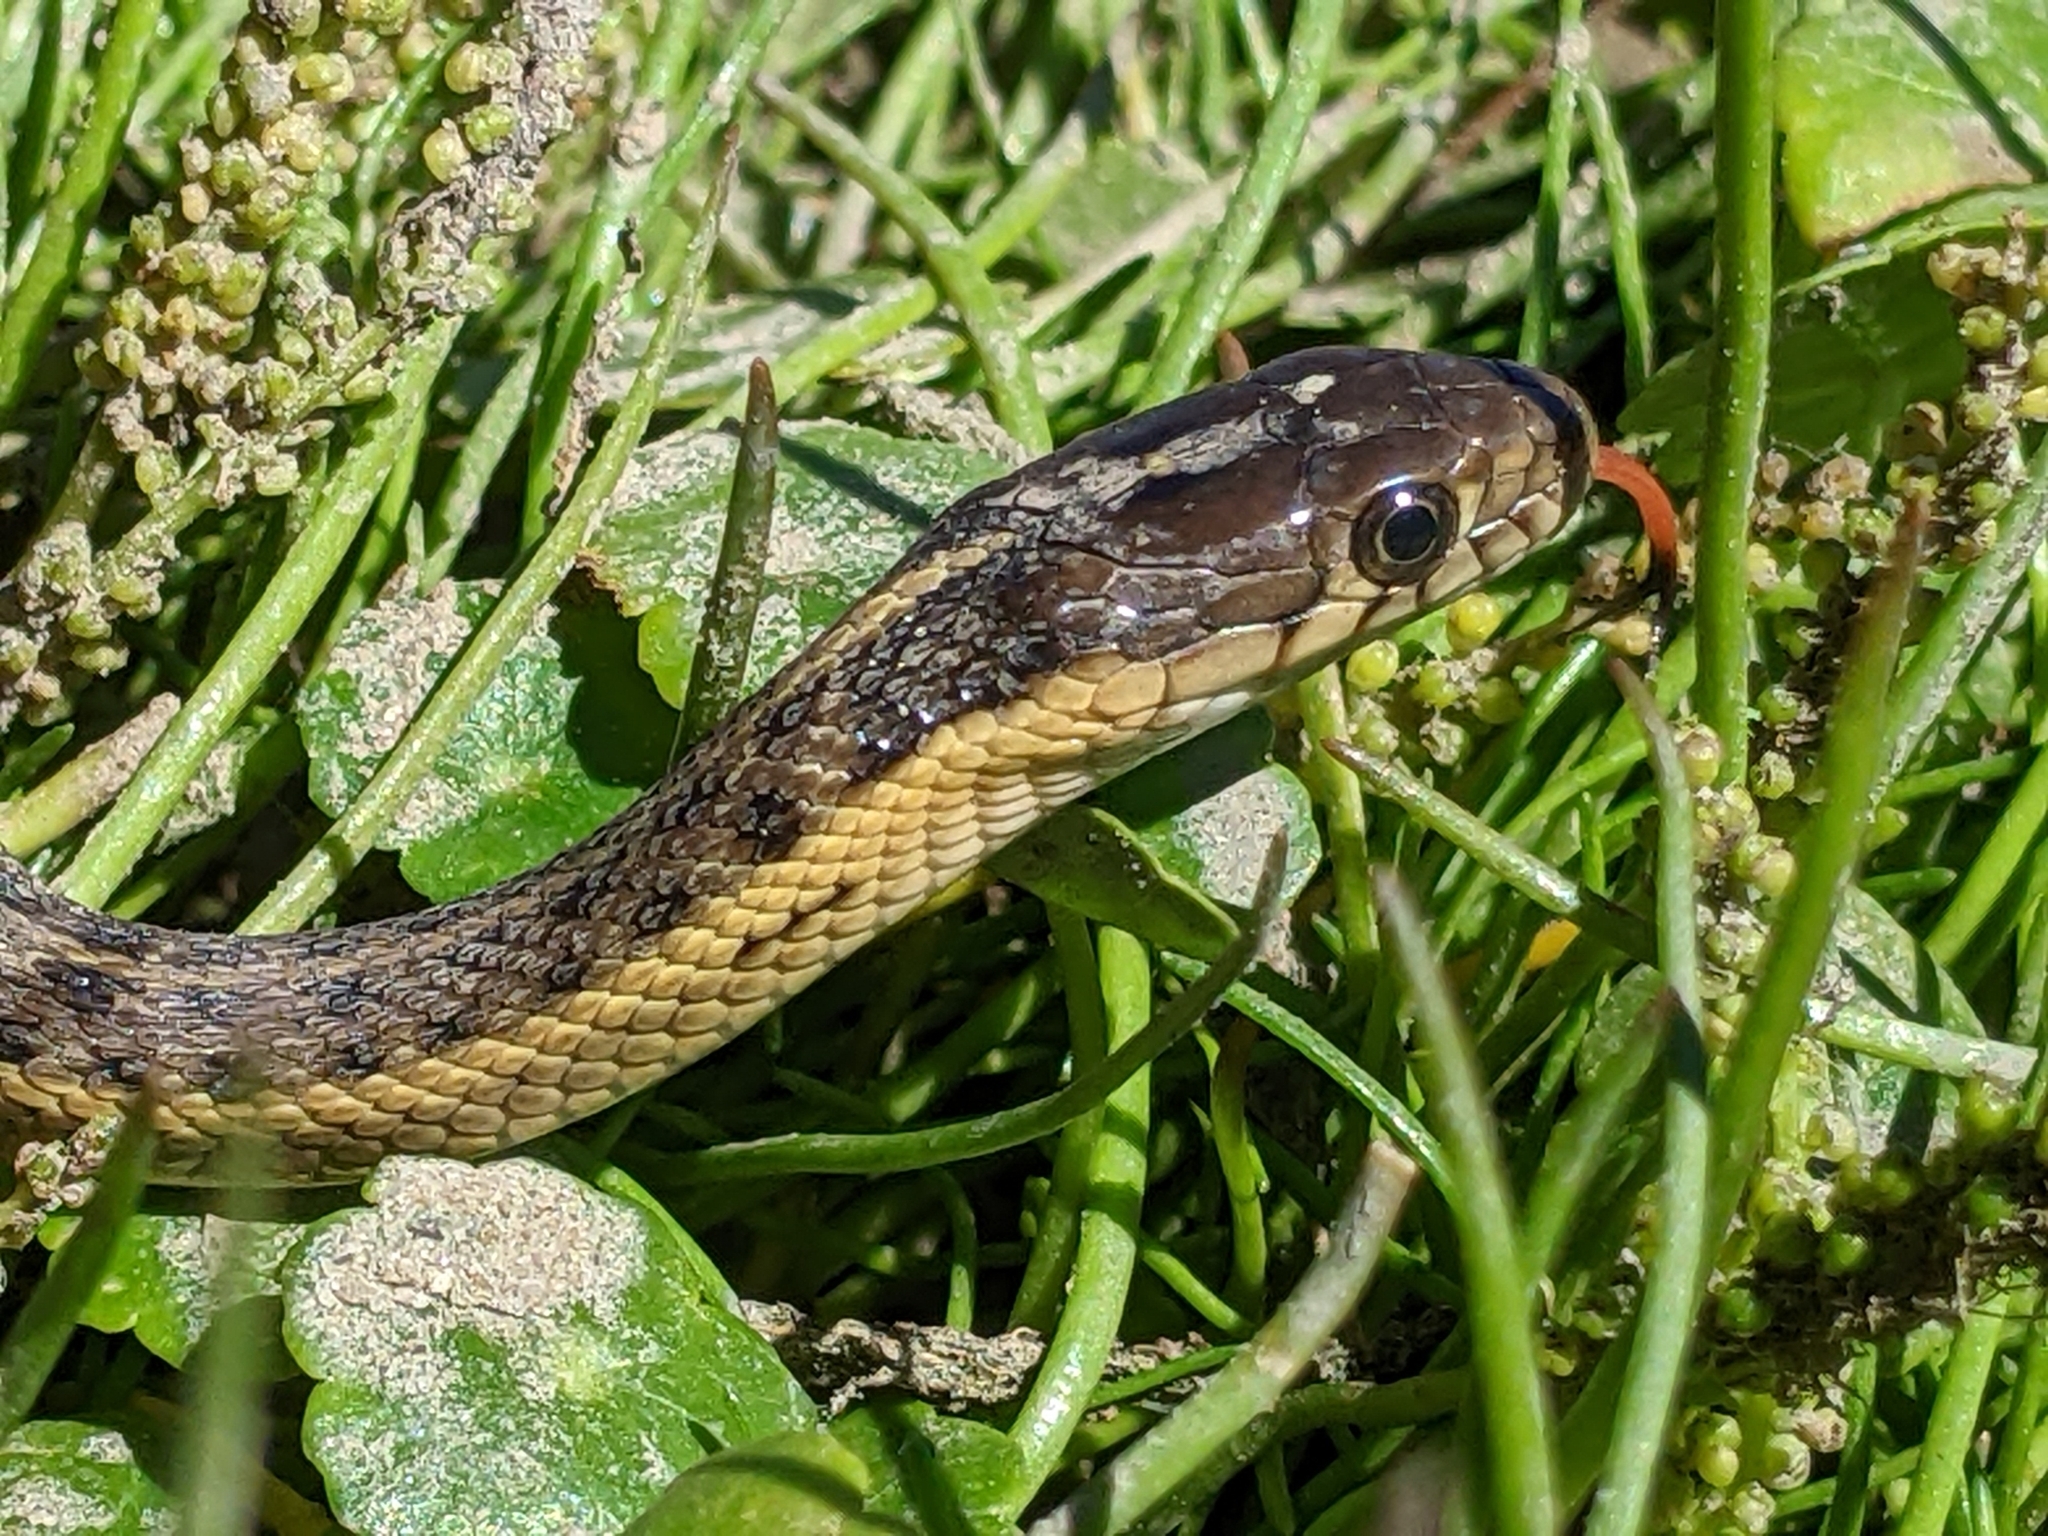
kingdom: Animalia
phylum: Chordata
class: Squamata
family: Colubridae
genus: Thamnophis
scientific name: Thamnophis gigas
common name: Giant garter snake
